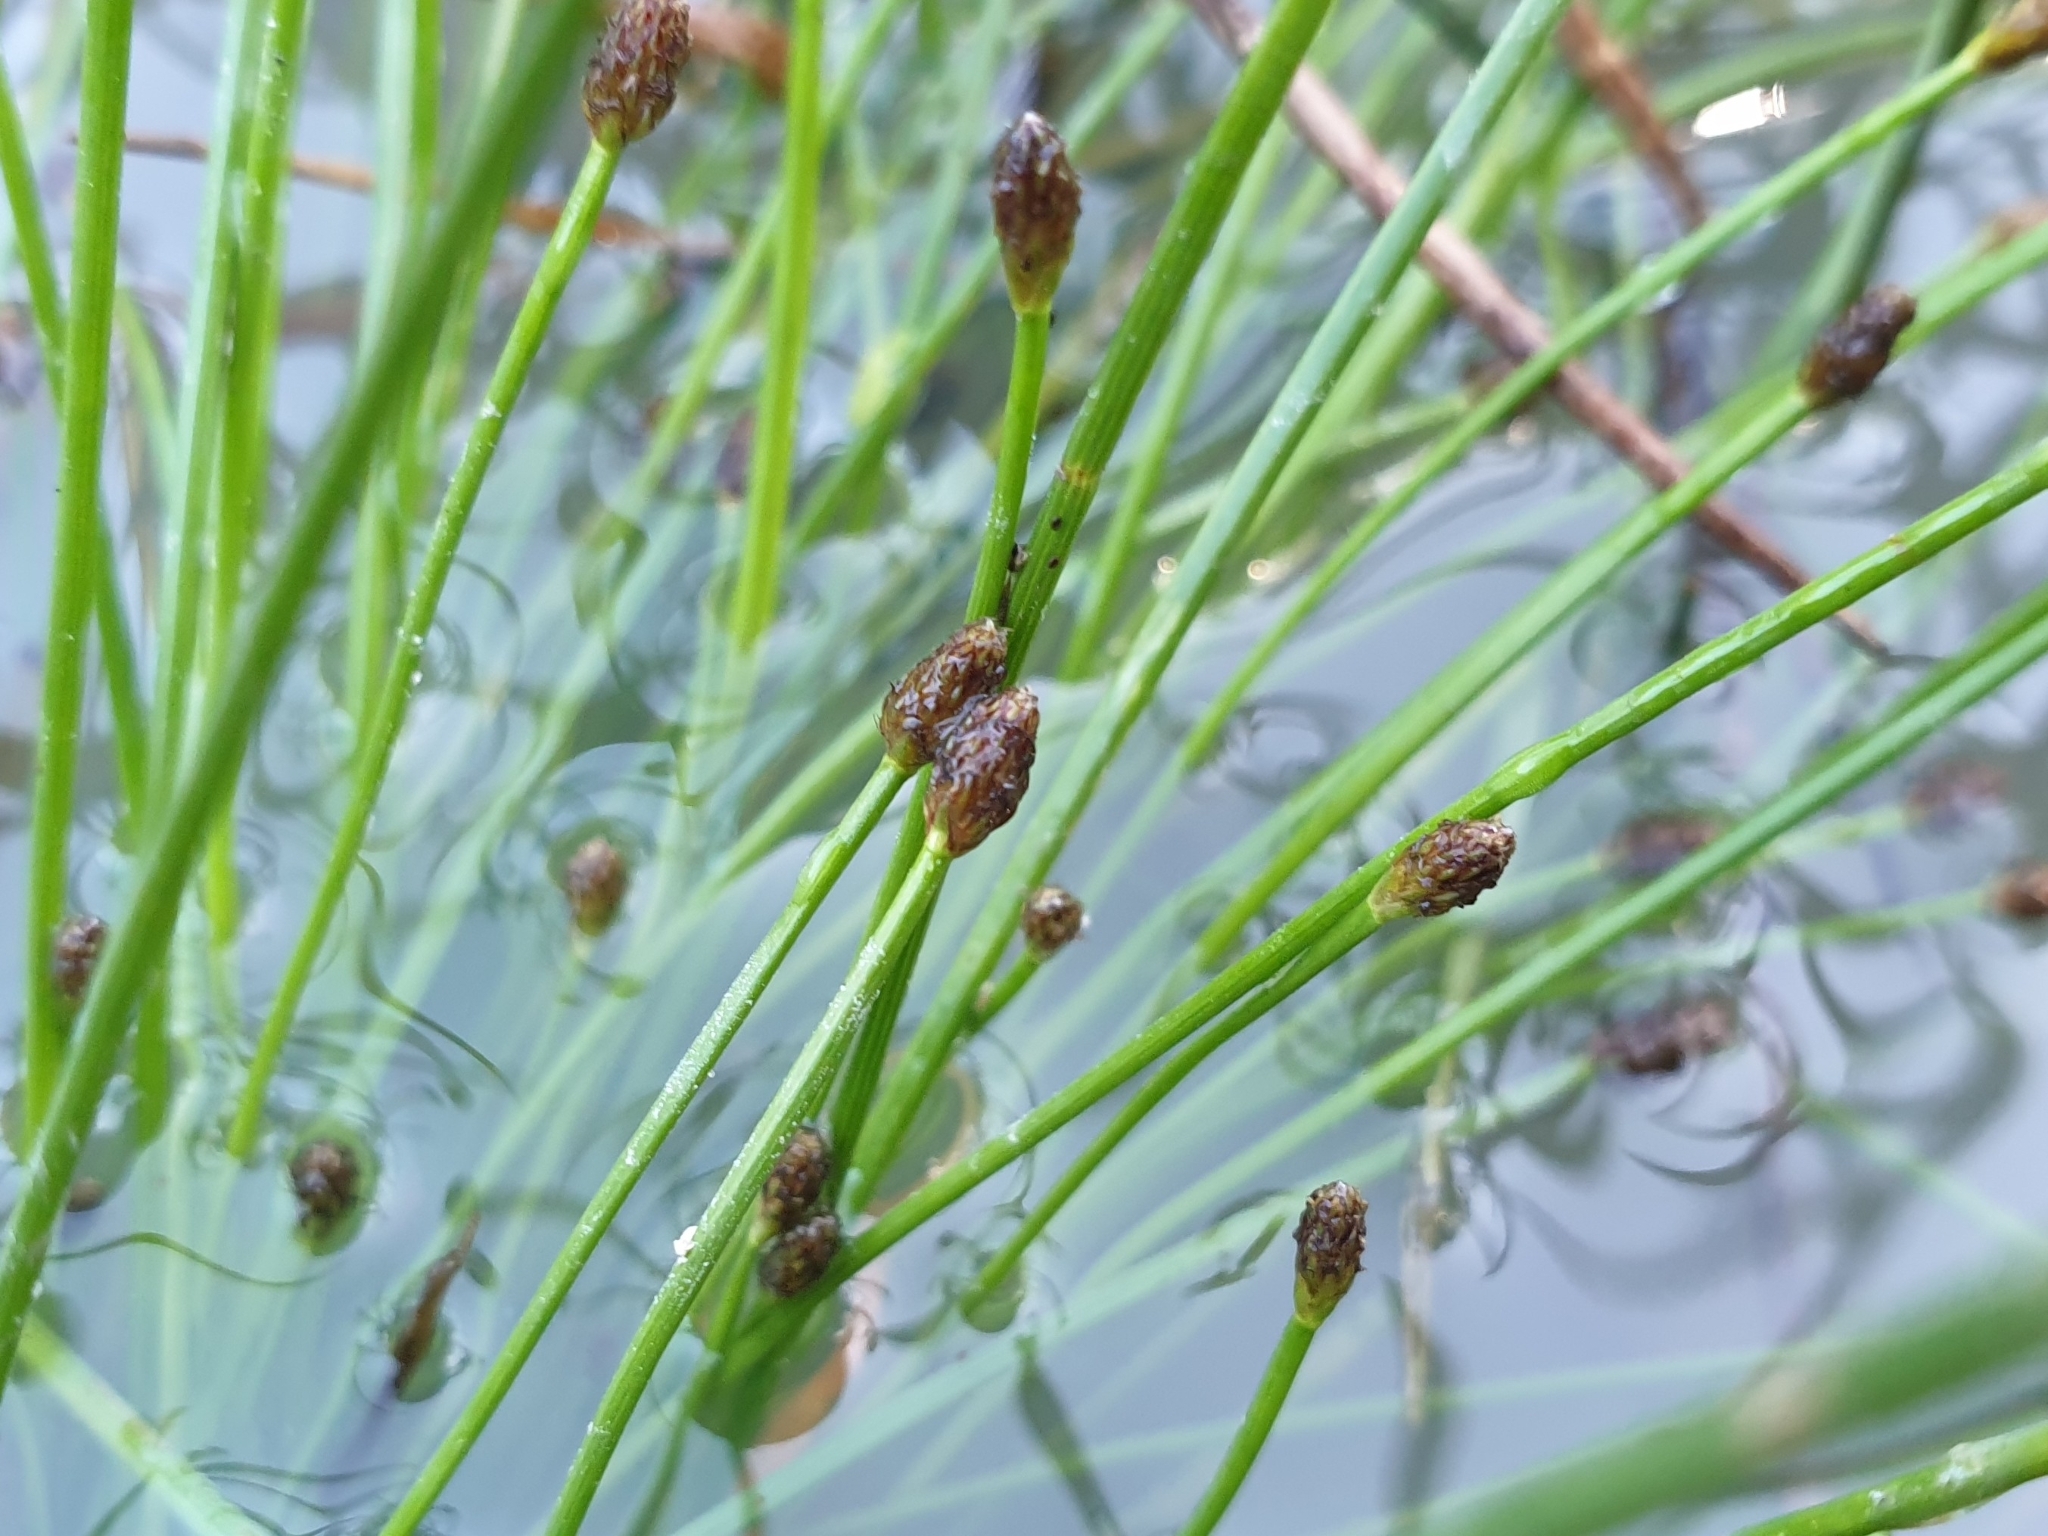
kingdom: Plantae
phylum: Tracheophyta
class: Liliopsida
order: Poales
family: Cyperaceae
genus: Eleocharis
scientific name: Eleocharis ovata
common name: Oval spike-rush
